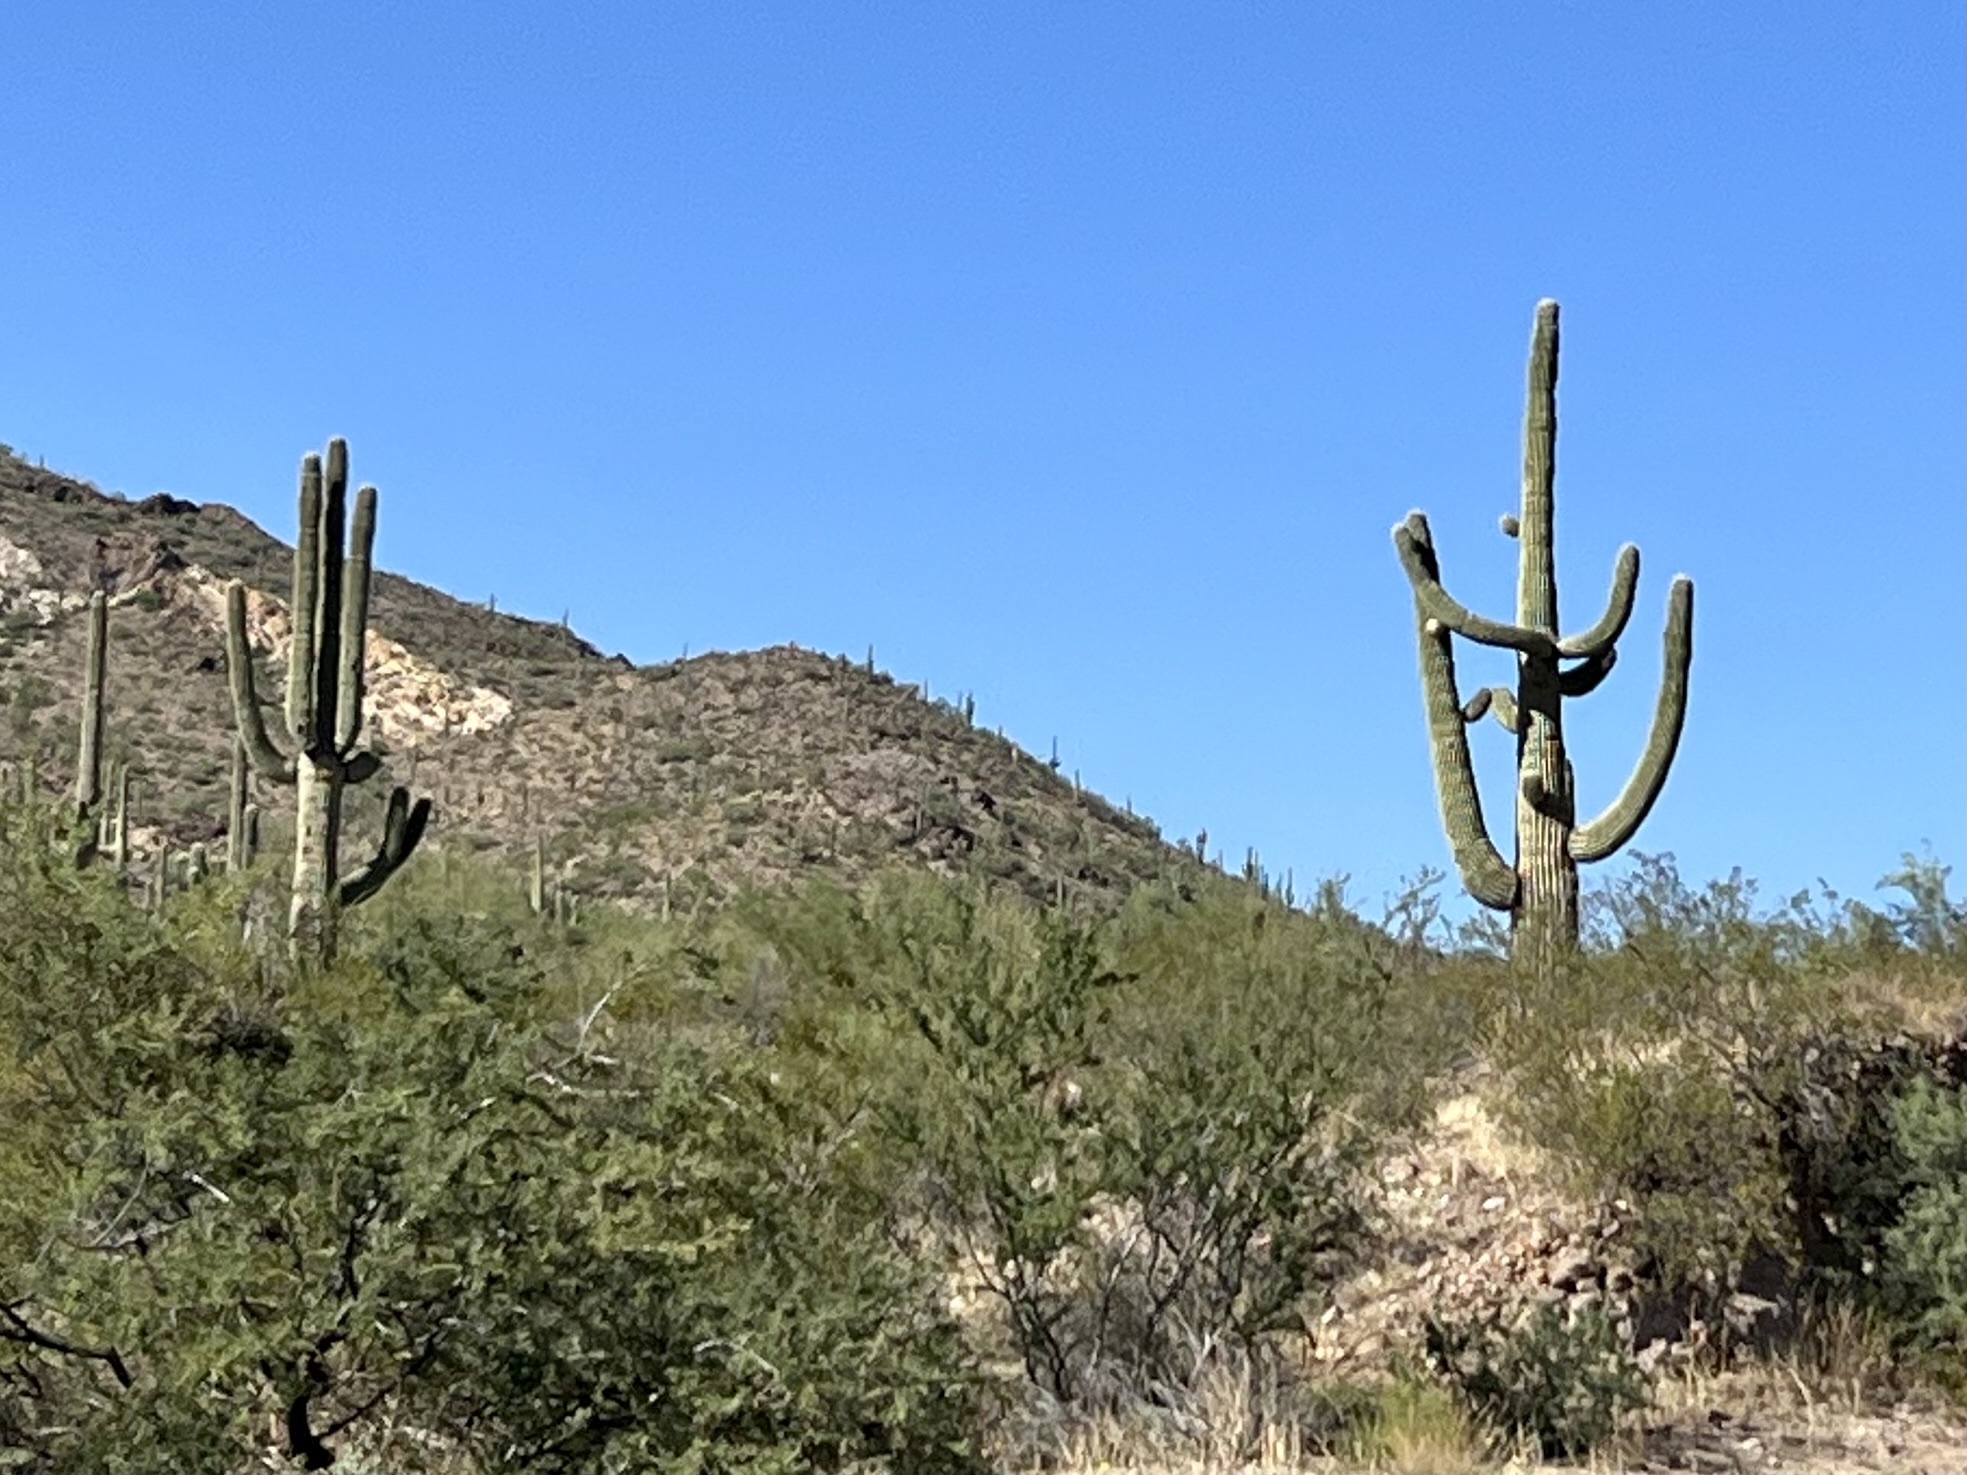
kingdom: Plantae
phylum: Tracheophyta
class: Magnoliopsida
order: Caryophyllales
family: Cactaceae
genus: Carnegiea
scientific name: Carnegiea gigantea
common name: Saguaro
